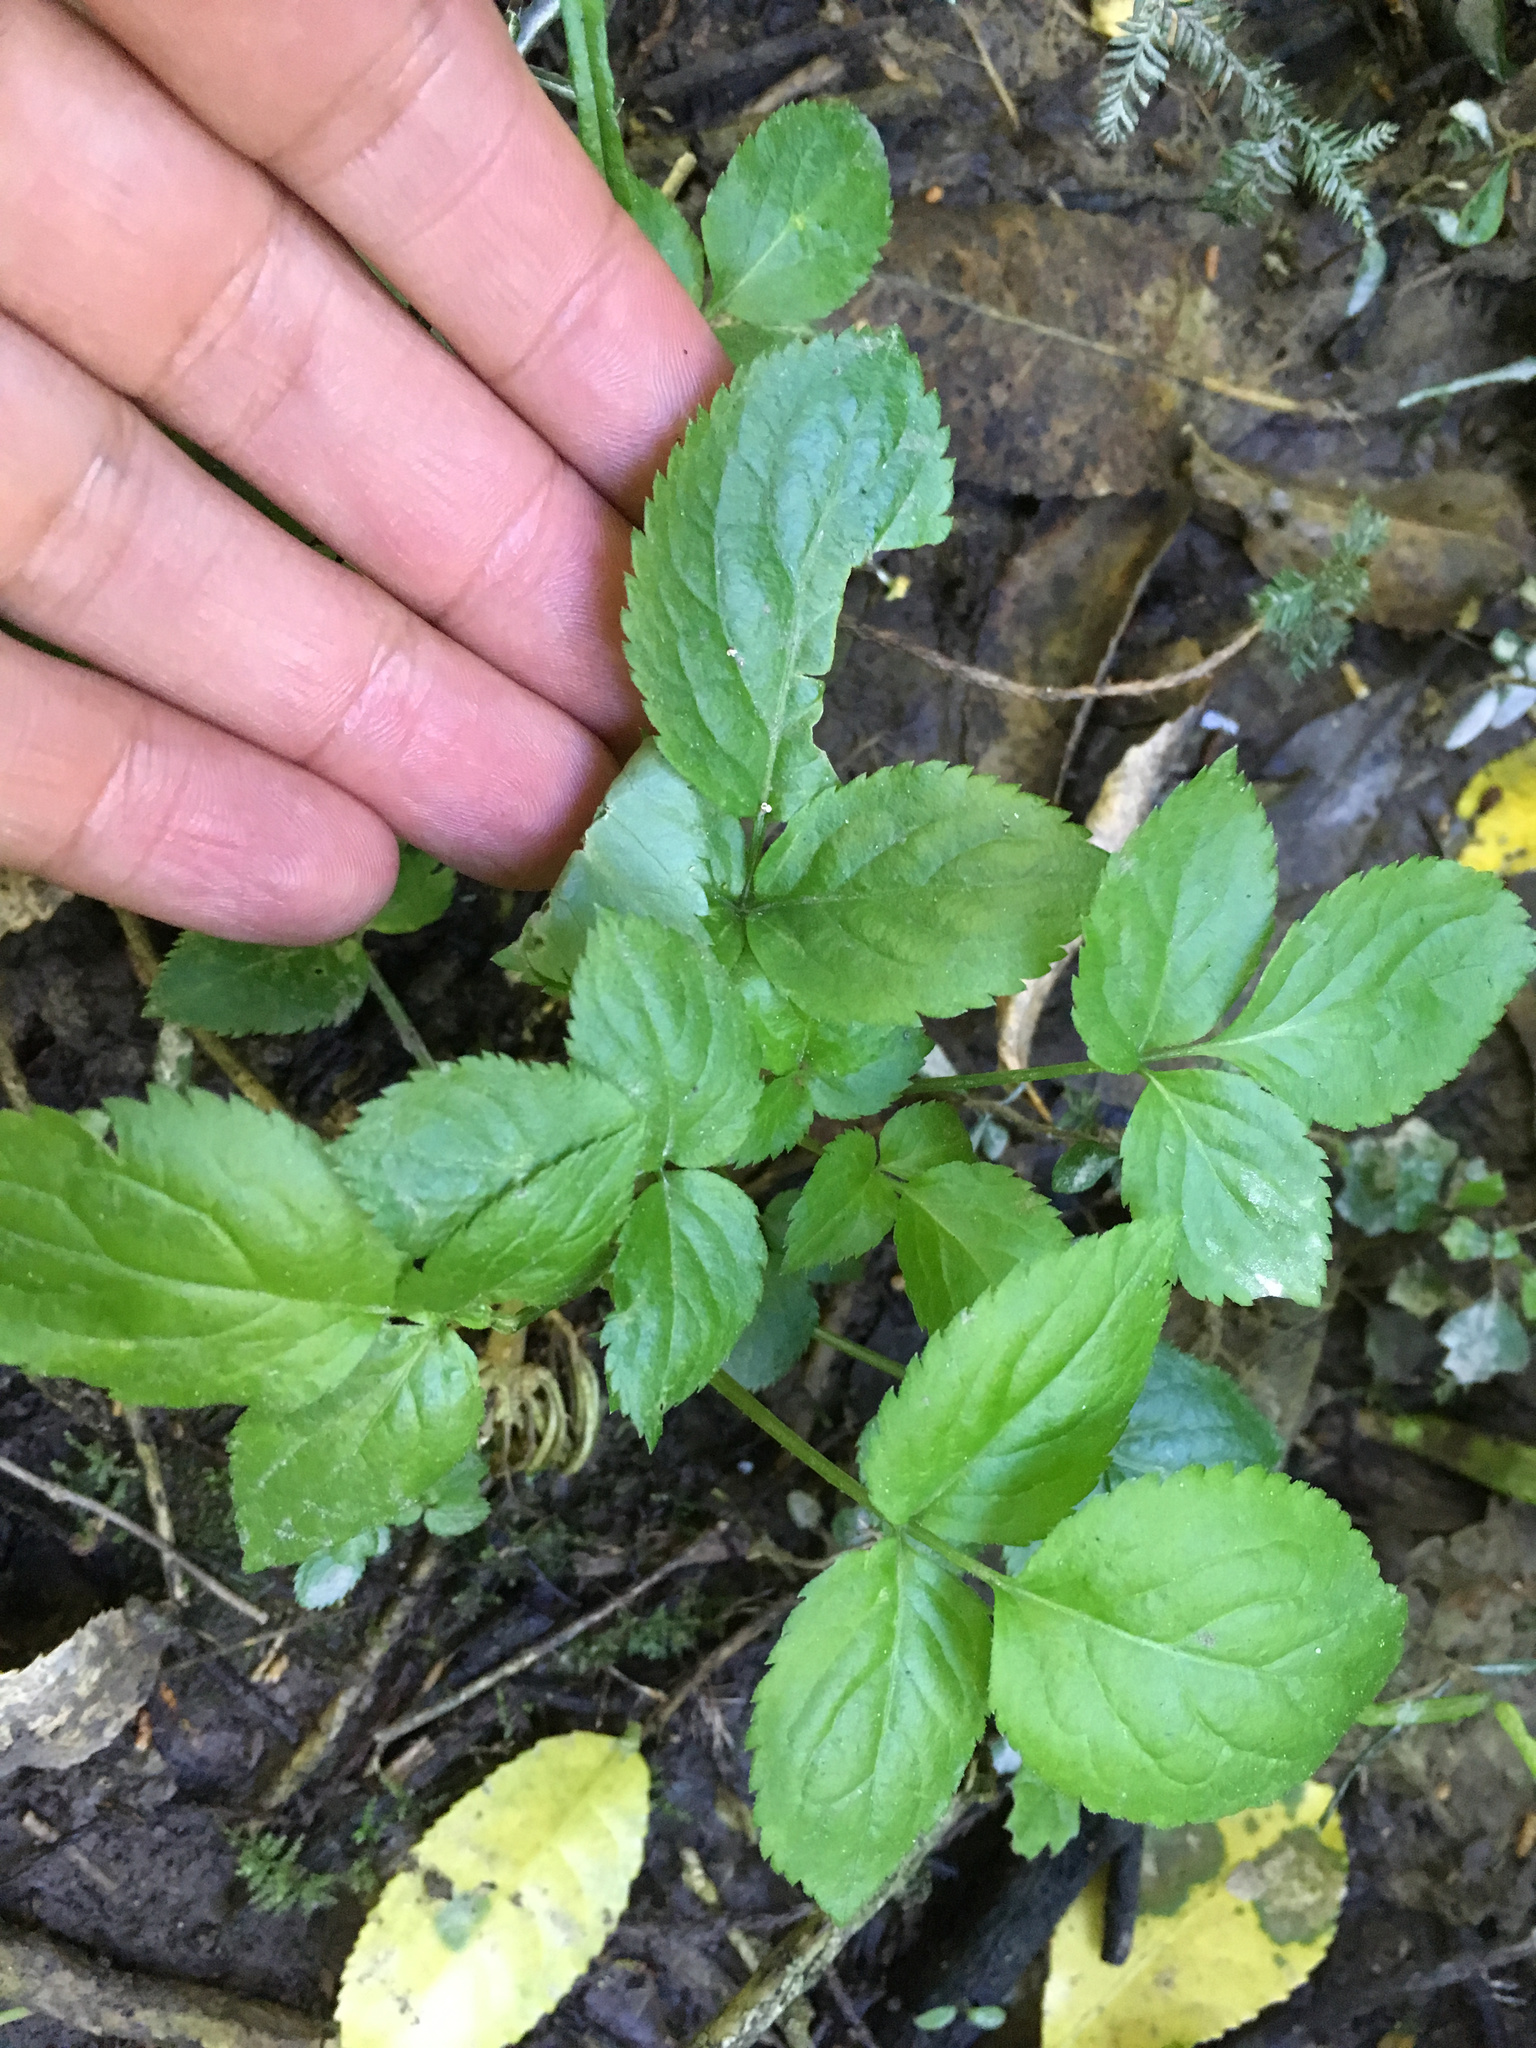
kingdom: Plantae
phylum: Tracheophyta
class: Magnoliopsida
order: Dipsacales
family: Viburnaceae
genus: Sambucus
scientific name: Sambucus nigra
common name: Elder
